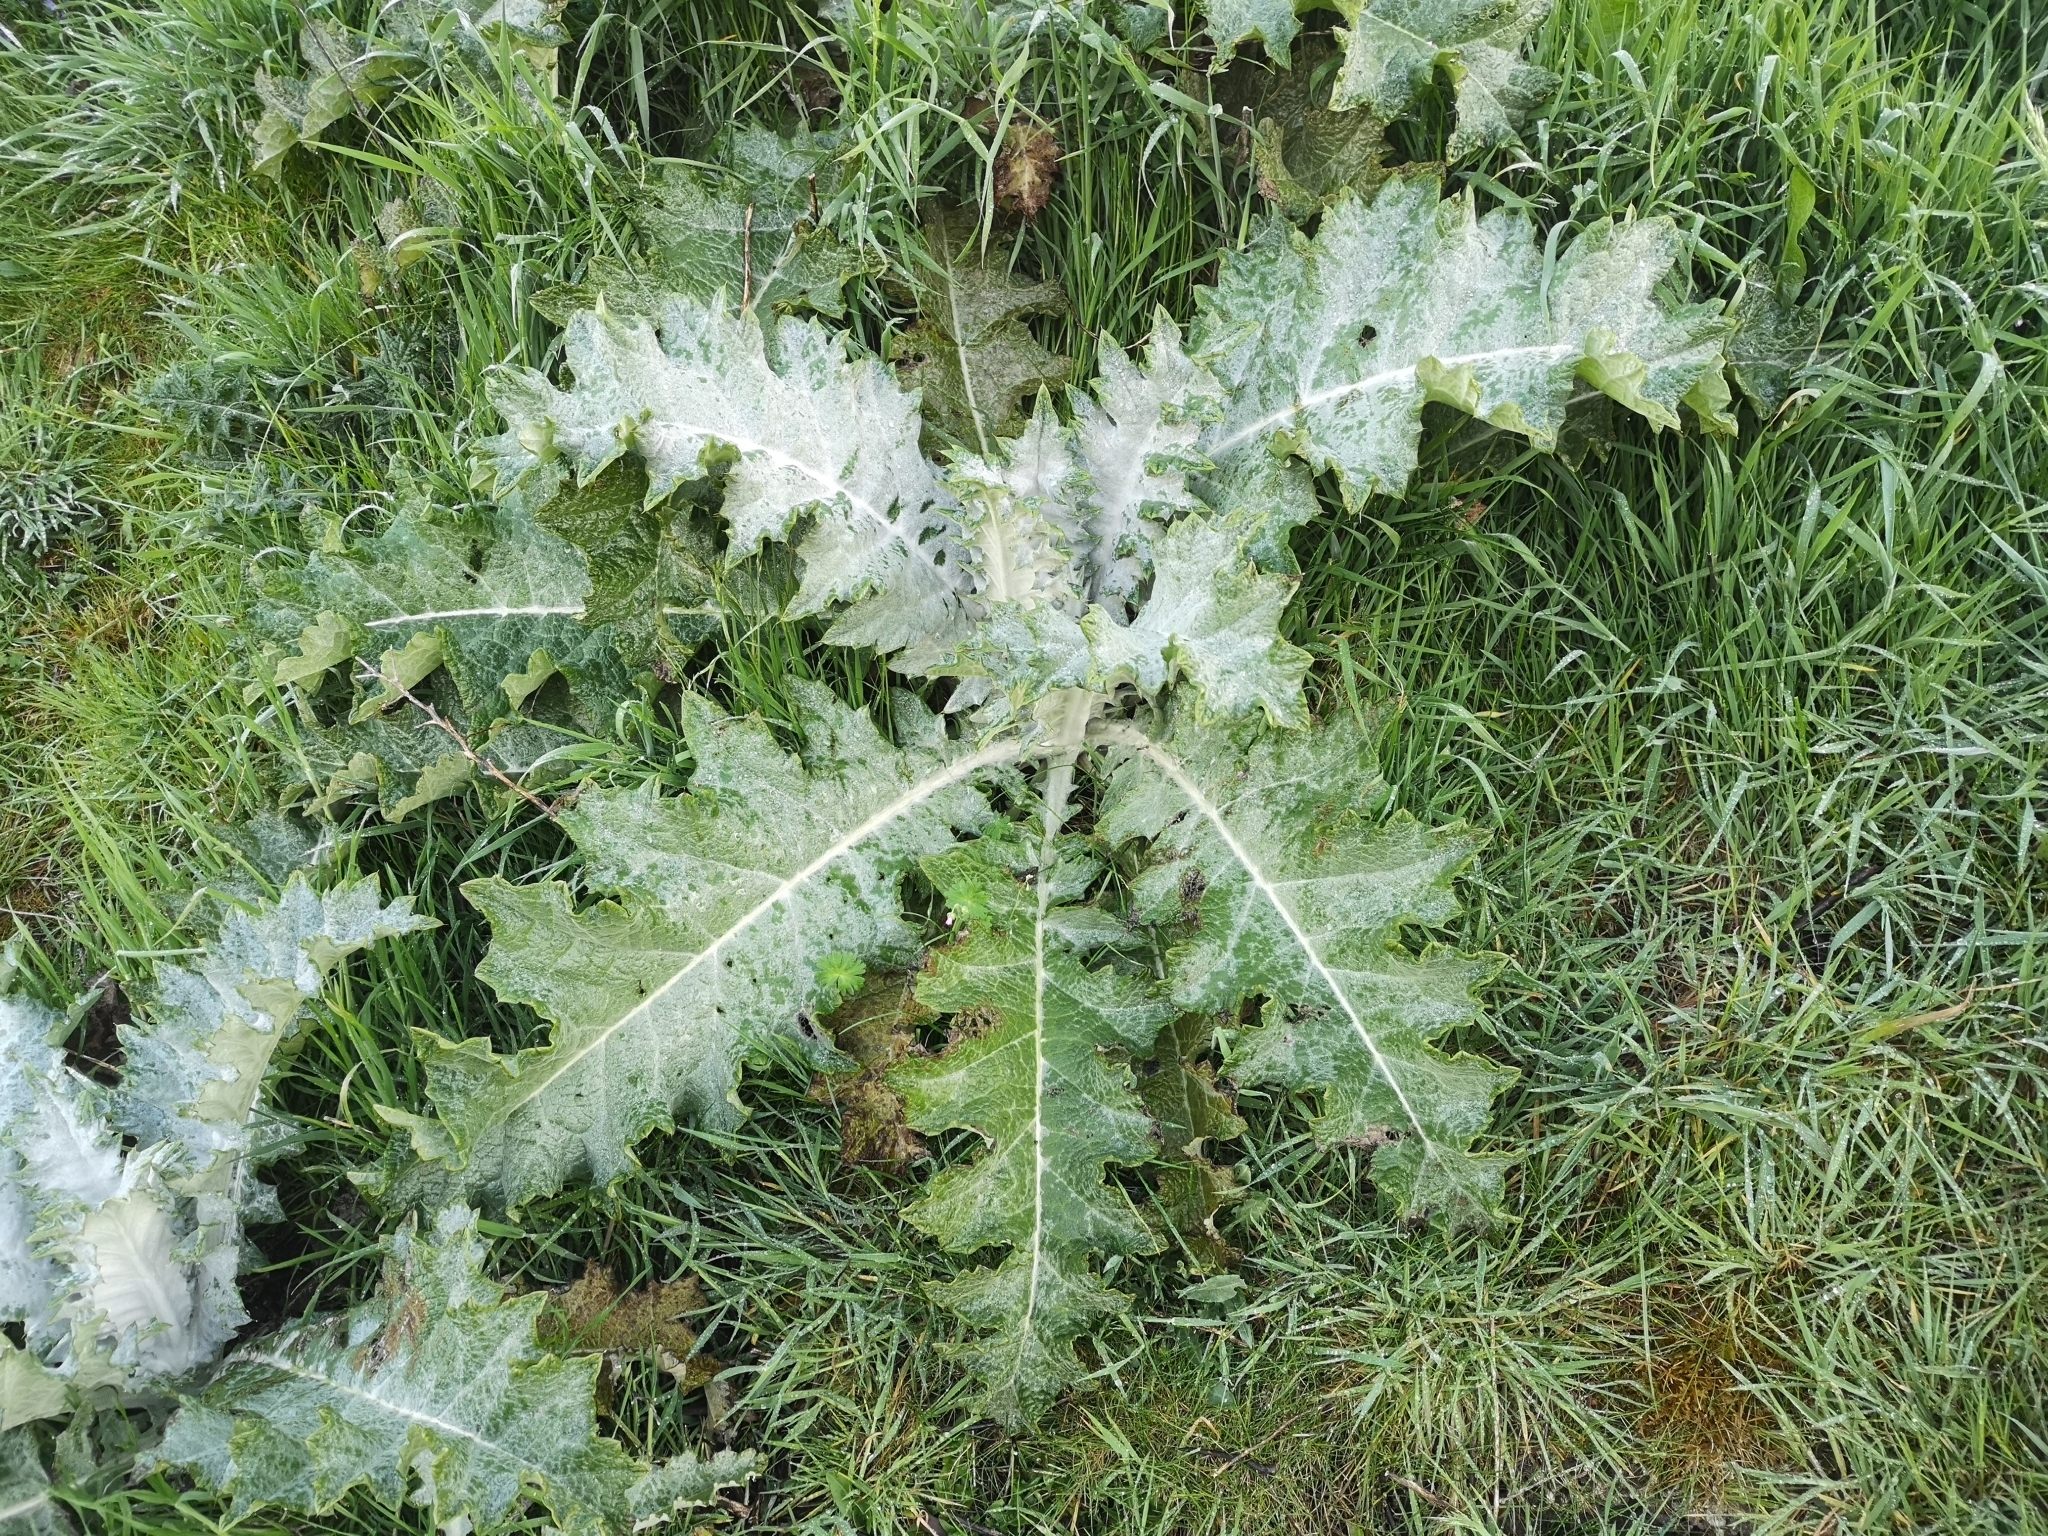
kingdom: Plantae
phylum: Tracheophyta
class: Magnoliopsida
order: Asterales
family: Asteraceae
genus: Onopordum
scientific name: Onopordum acanthium
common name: Scotch thistle
